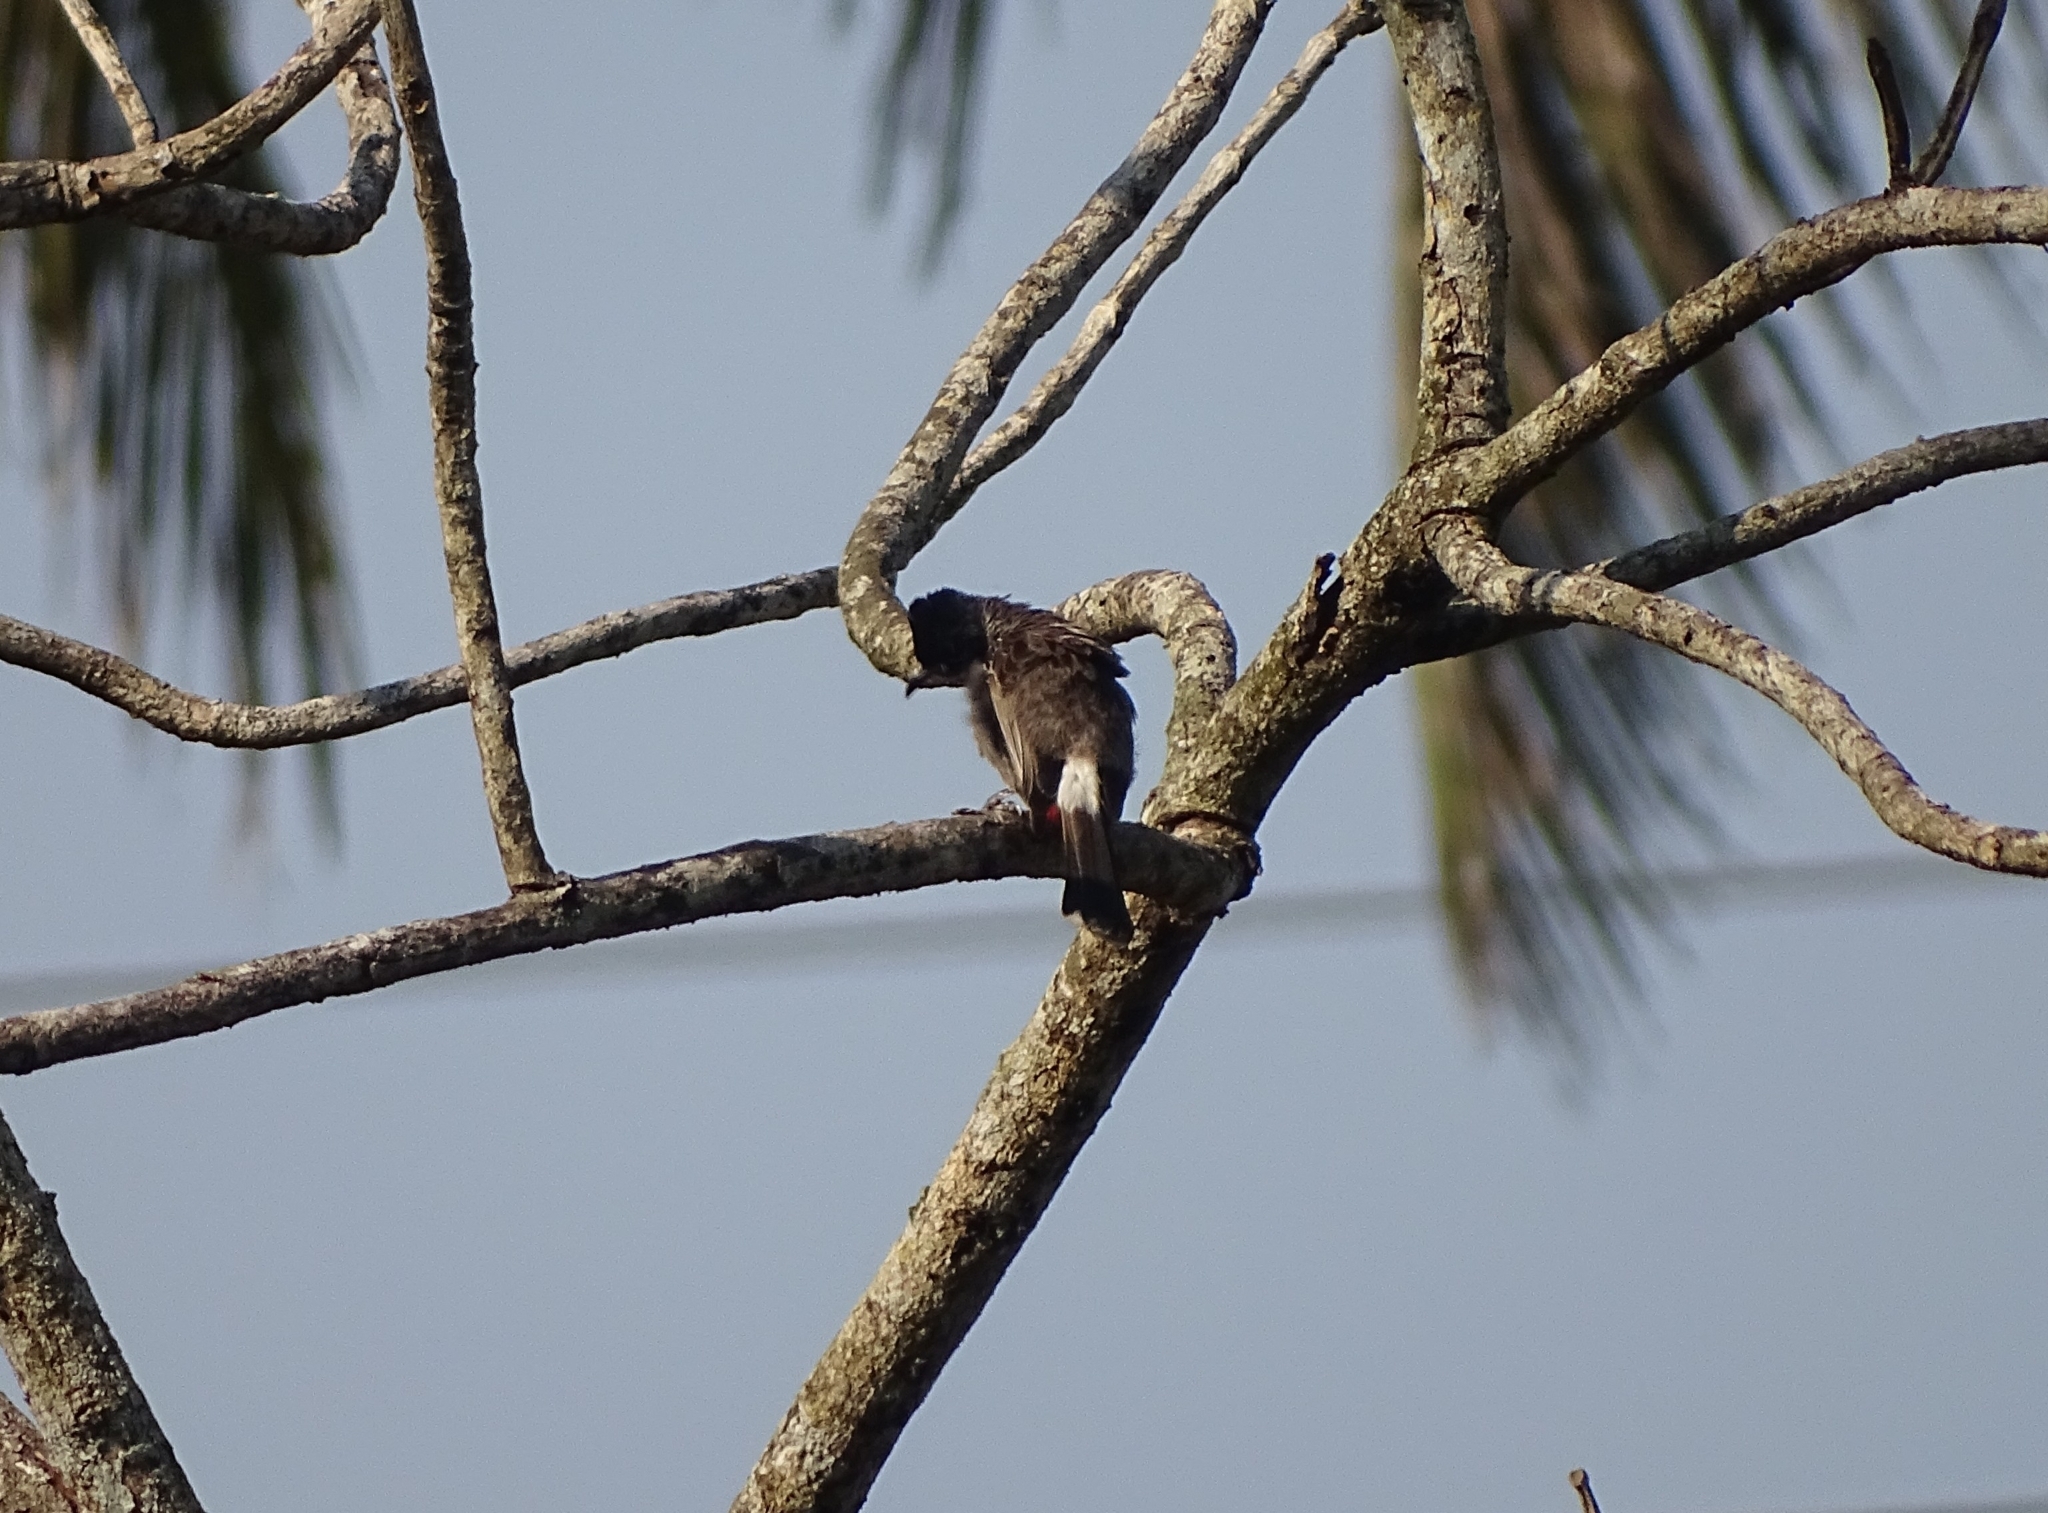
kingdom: Animalia
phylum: Chordata
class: Aves
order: Passeriformes
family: Pycnonotidae
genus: Pycnonotus
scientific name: Pycnonotus cafer
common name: Red-vented bulbul
